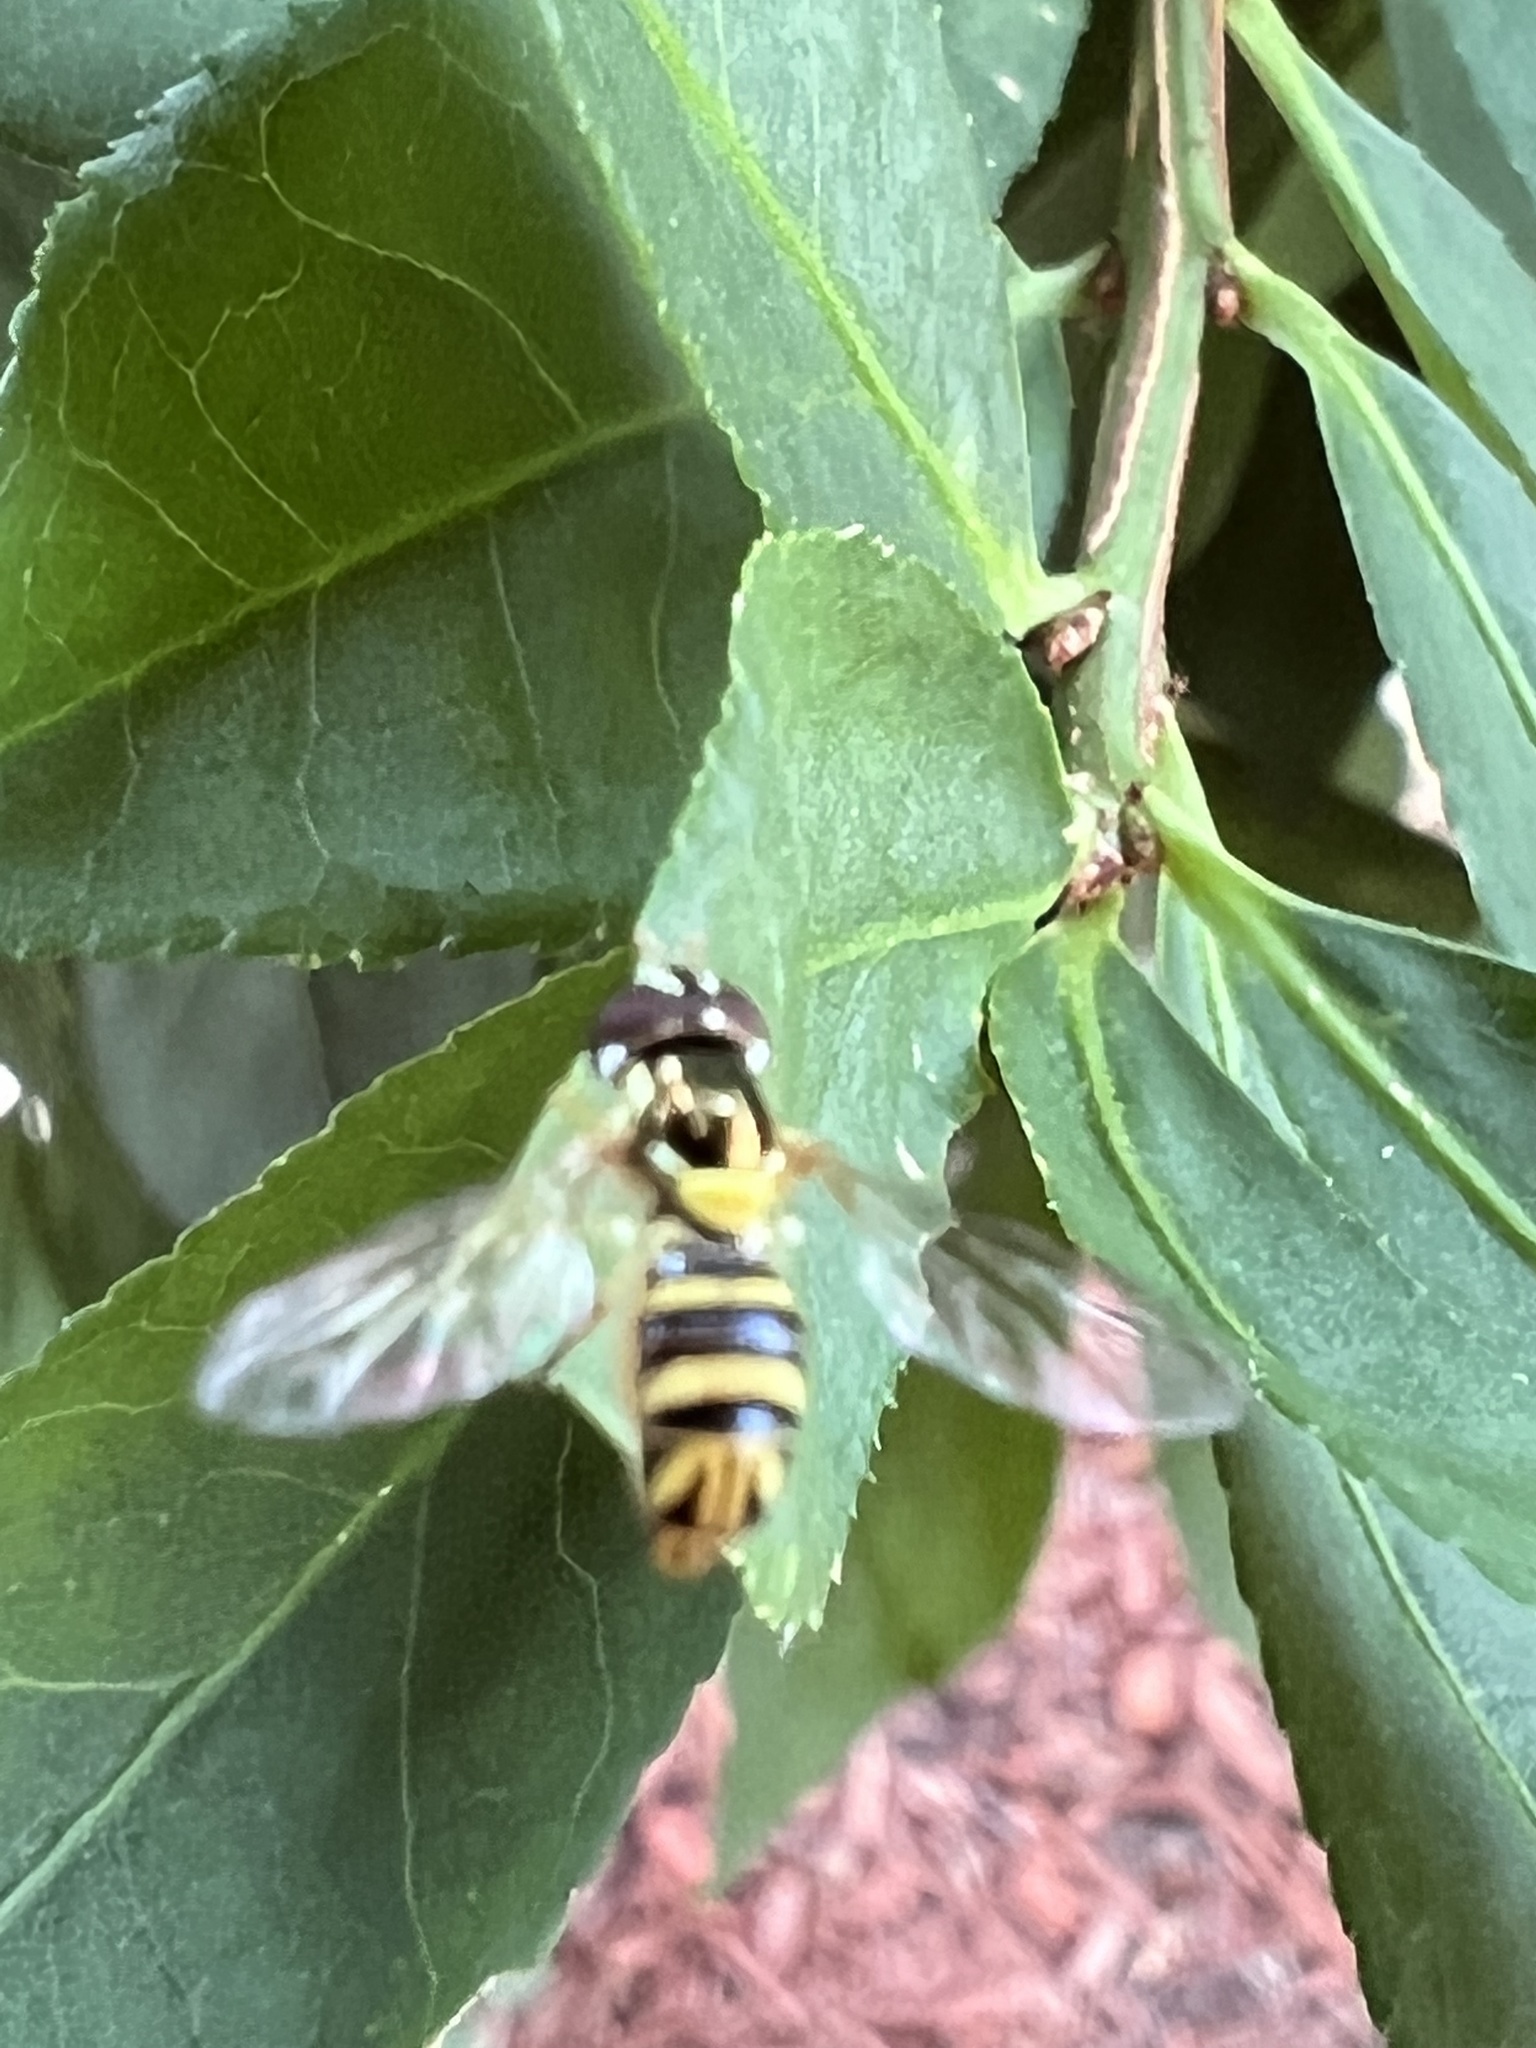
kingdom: Animalia
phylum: Arthropoda
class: Insecta
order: Diptera
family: Syrphidae
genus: Allograpta
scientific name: Allograpta obliqua
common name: Common oblique syrphid
